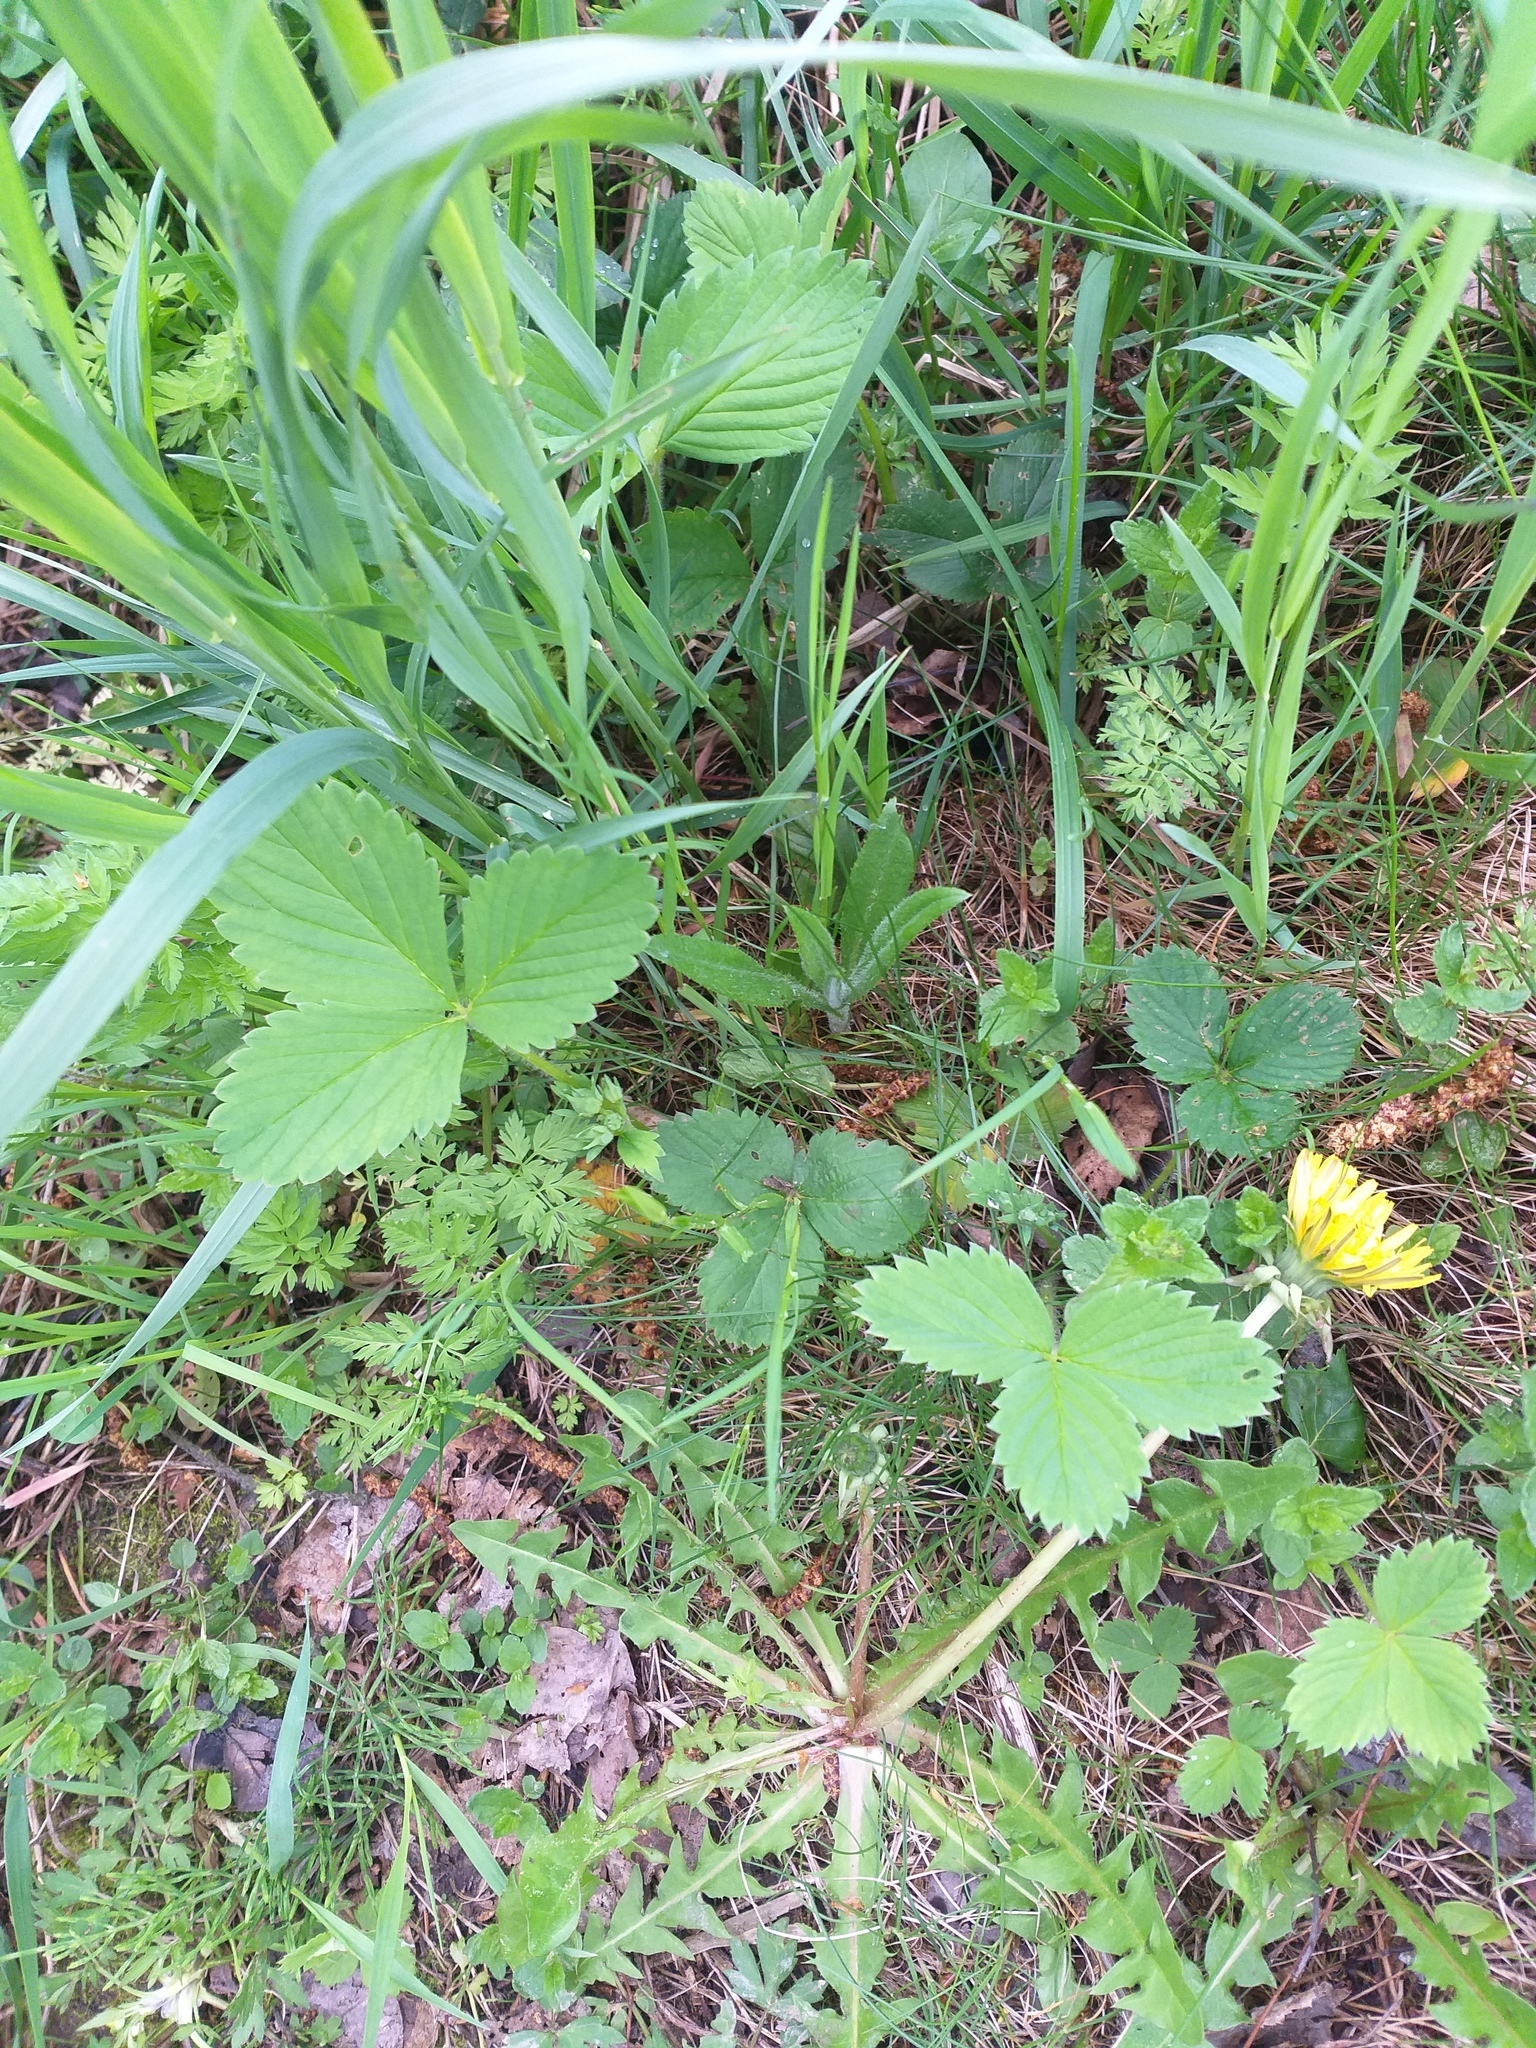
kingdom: Plantae
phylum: Tracheophyta
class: Magnoliopsida
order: Rosales
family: Rosaceae
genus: Fragaria
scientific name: Fragaria ananassa
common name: Garden strawberry
